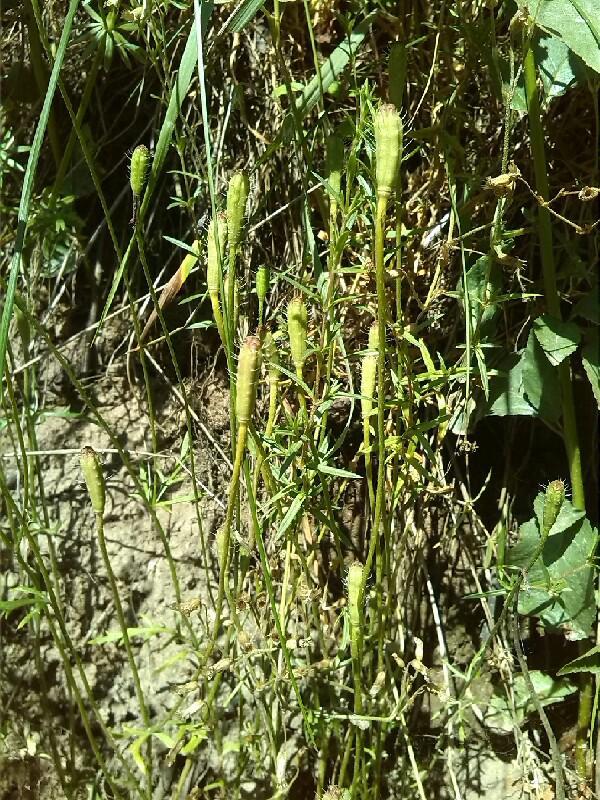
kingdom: Plantae
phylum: Tracheophyta
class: Magnoliopsida
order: Ranunculales
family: Papaveraceae
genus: Roemeria
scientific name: Roemeria argemone
